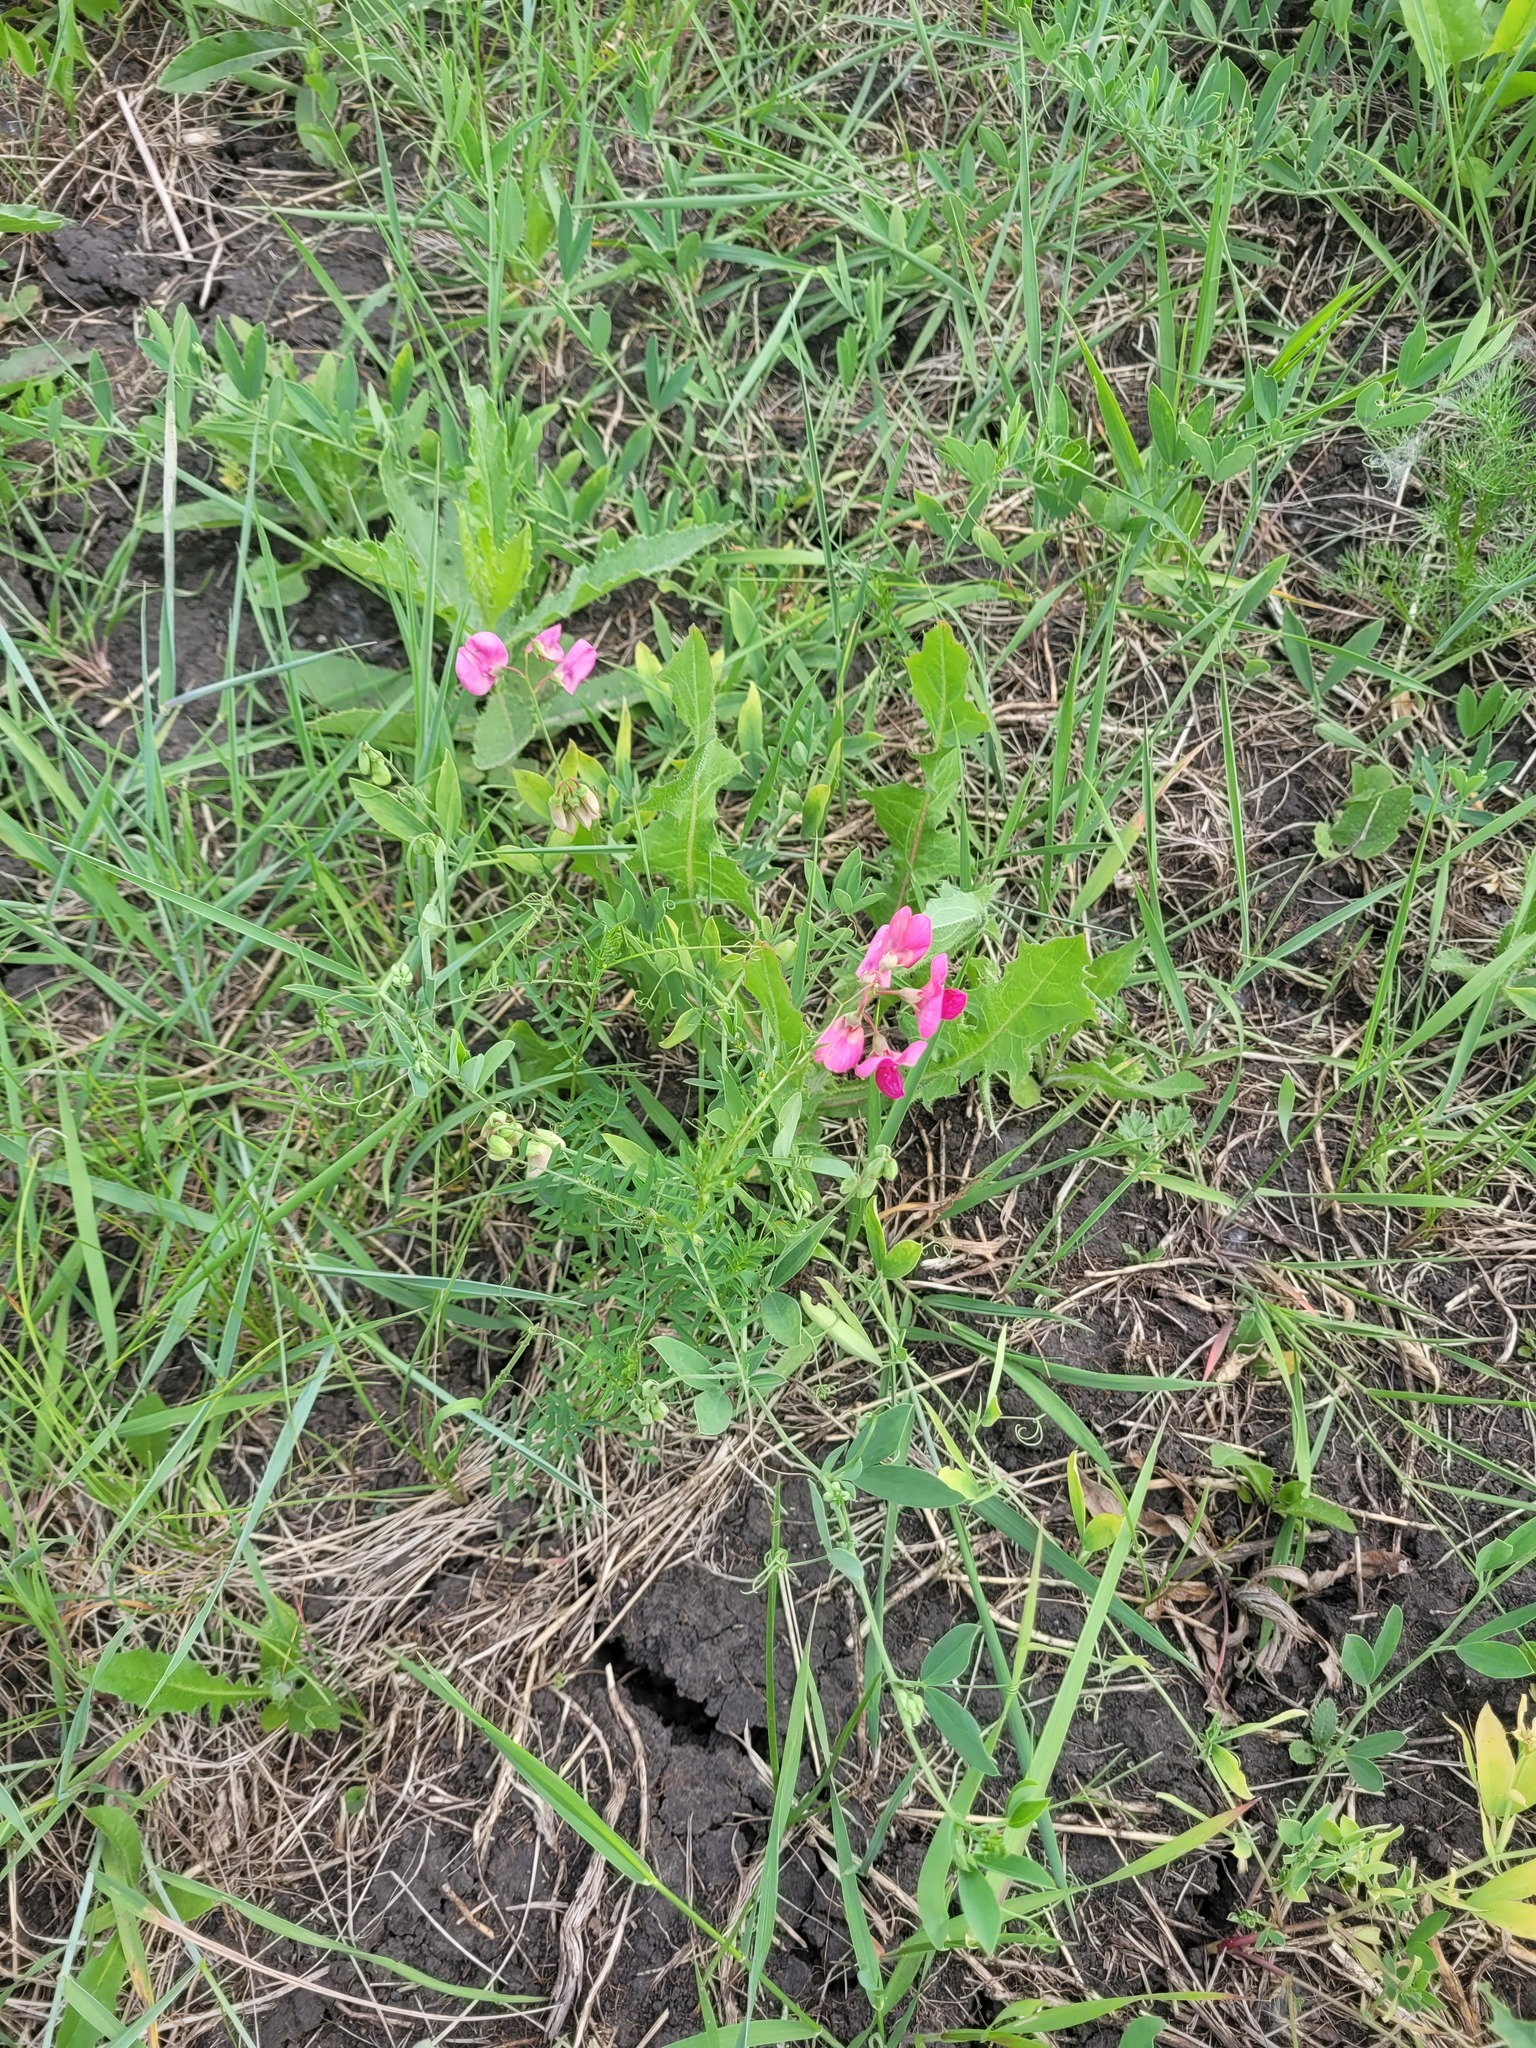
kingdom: Plantae
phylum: Tracheophyta
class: Magnoliopsida
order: Fabales
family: Fabaceae
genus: Lathyrus
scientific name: Lathyrus tuberosus
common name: Tuberous pea
